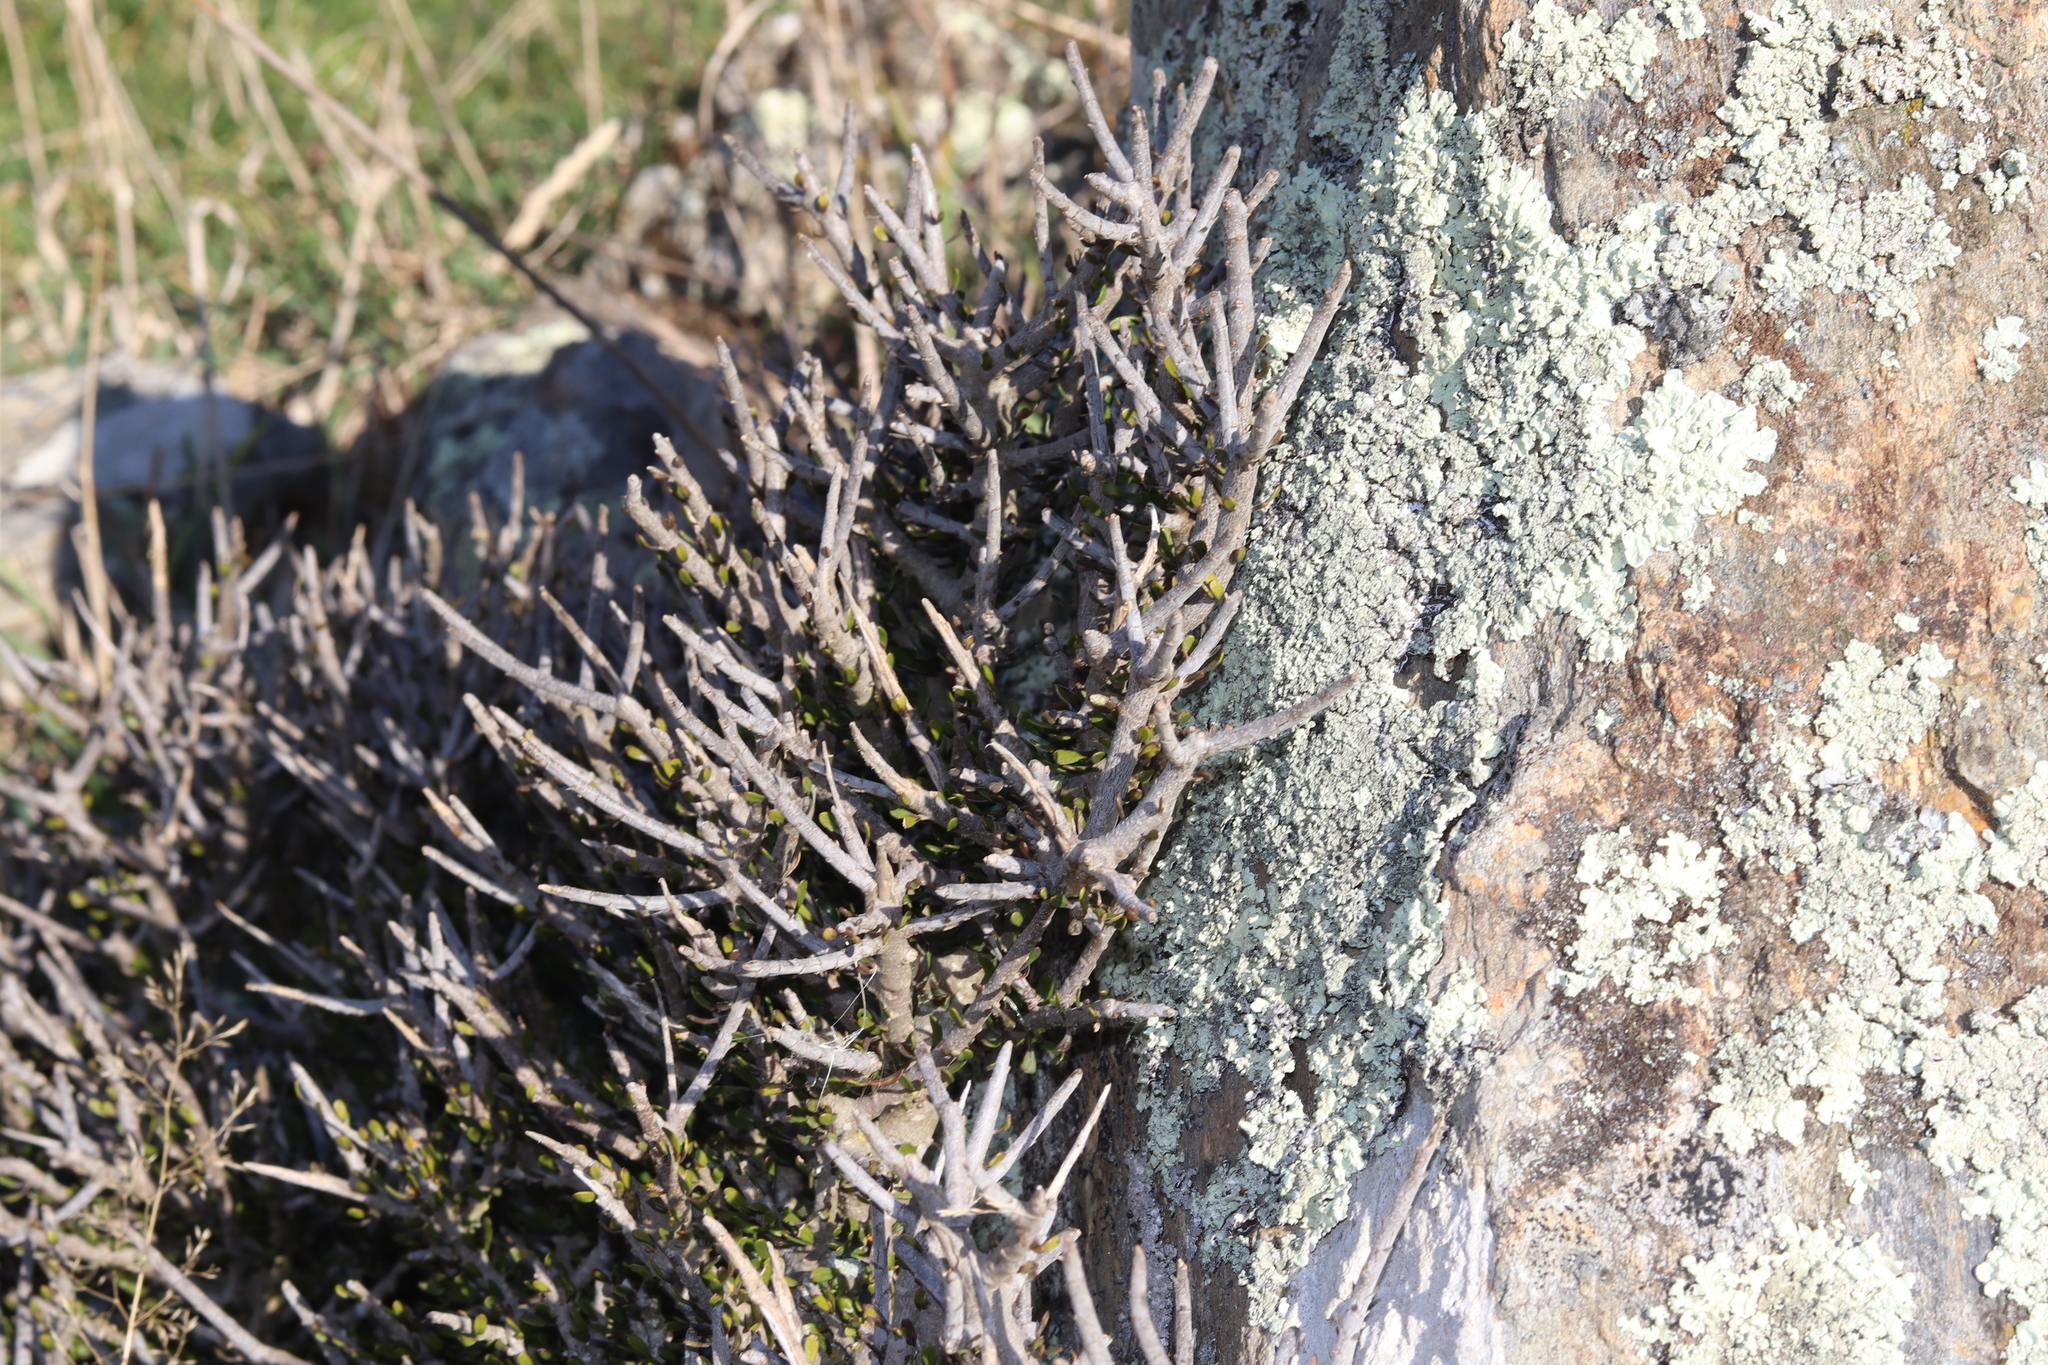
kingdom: Plantae
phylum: Tracheophyta
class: Magnoliopsida
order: Malpighiales
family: Violaceae
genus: Melicytus
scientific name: Melicytus alpinus
